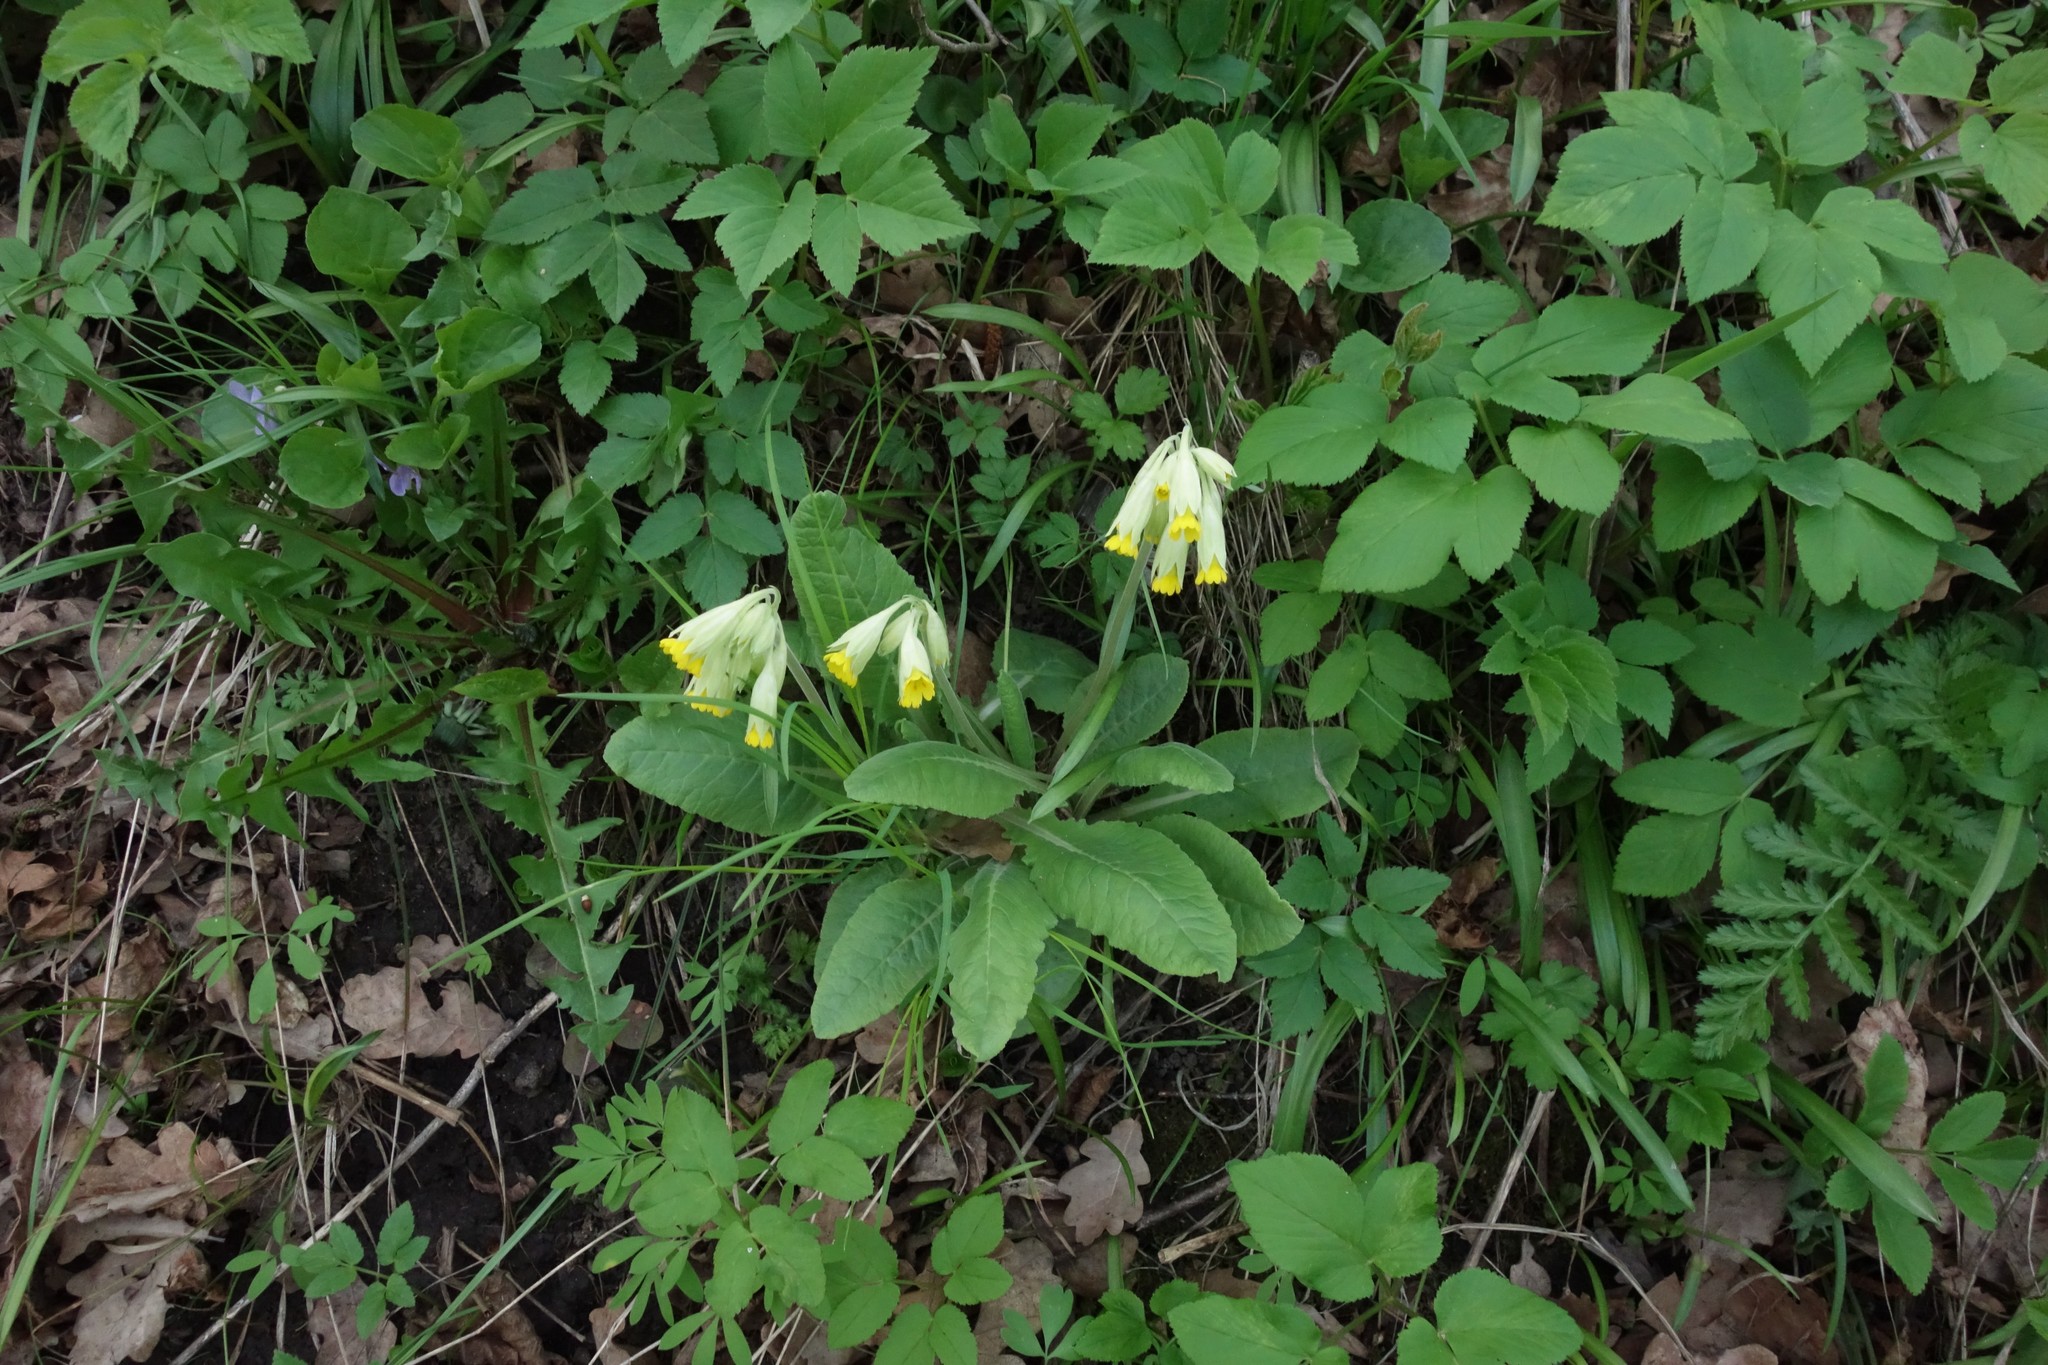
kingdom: Plantae
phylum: Tracheophyta
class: Magnoliopsida
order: Ericales
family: Primulaceae
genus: Primula
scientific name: Primula veris
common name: Cowslip
